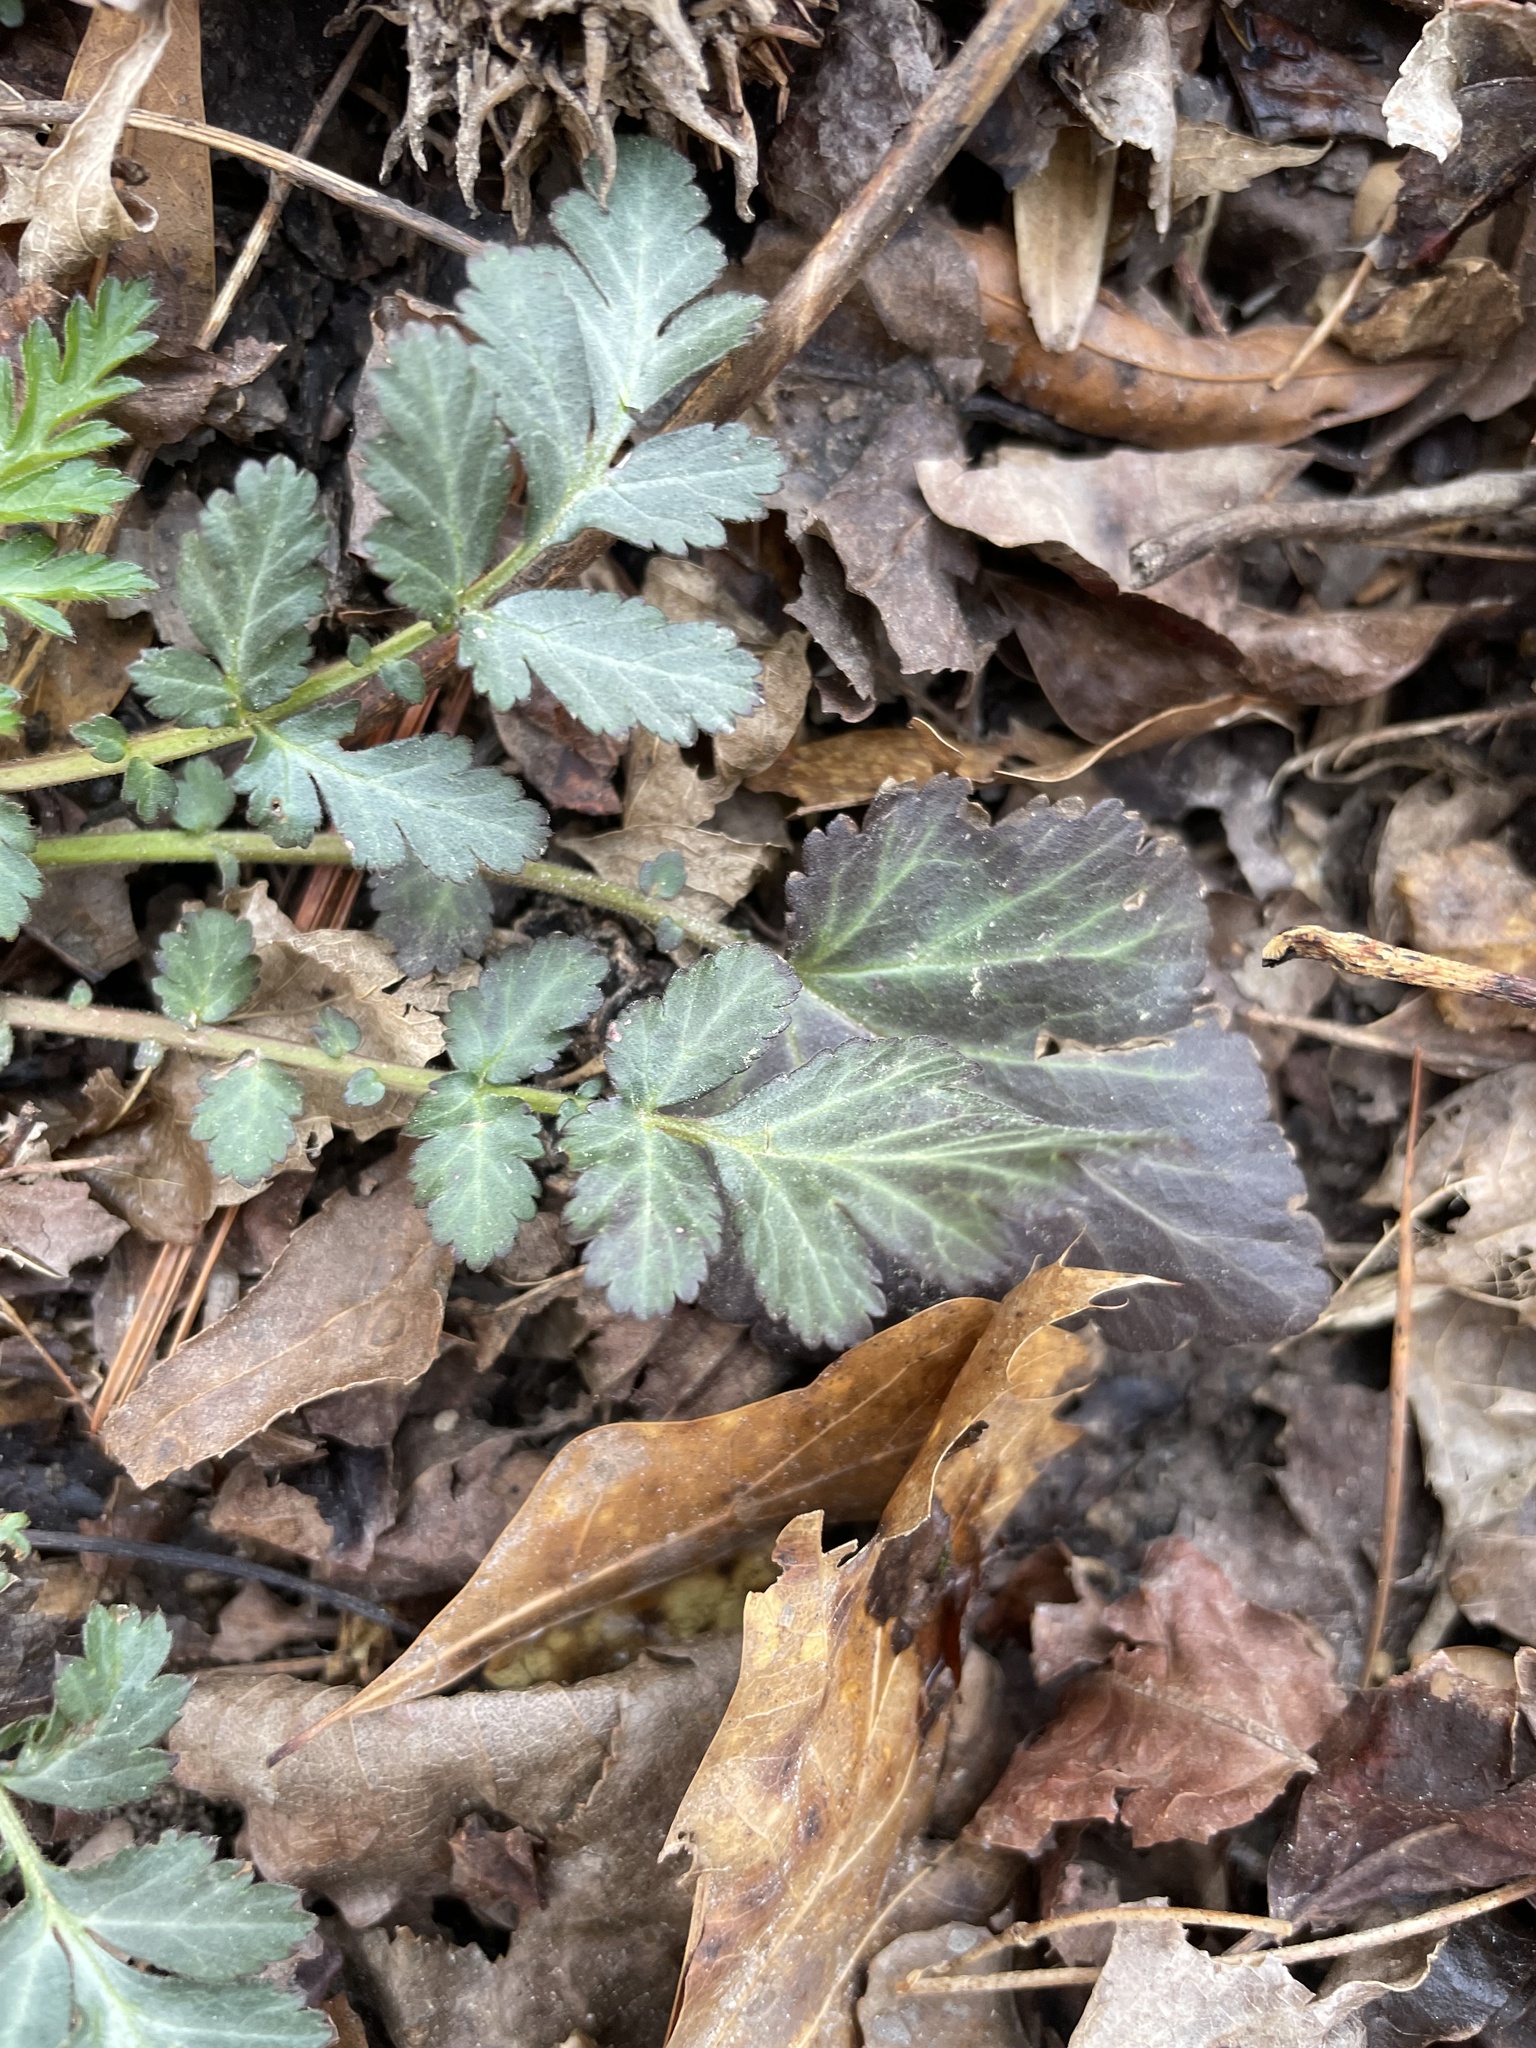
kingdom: Plantae
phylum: Tracheophyta
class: Magnoliopsida
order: Rosales
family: Rosaceae
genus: Geum
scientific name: Geum canadense
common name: White avens
